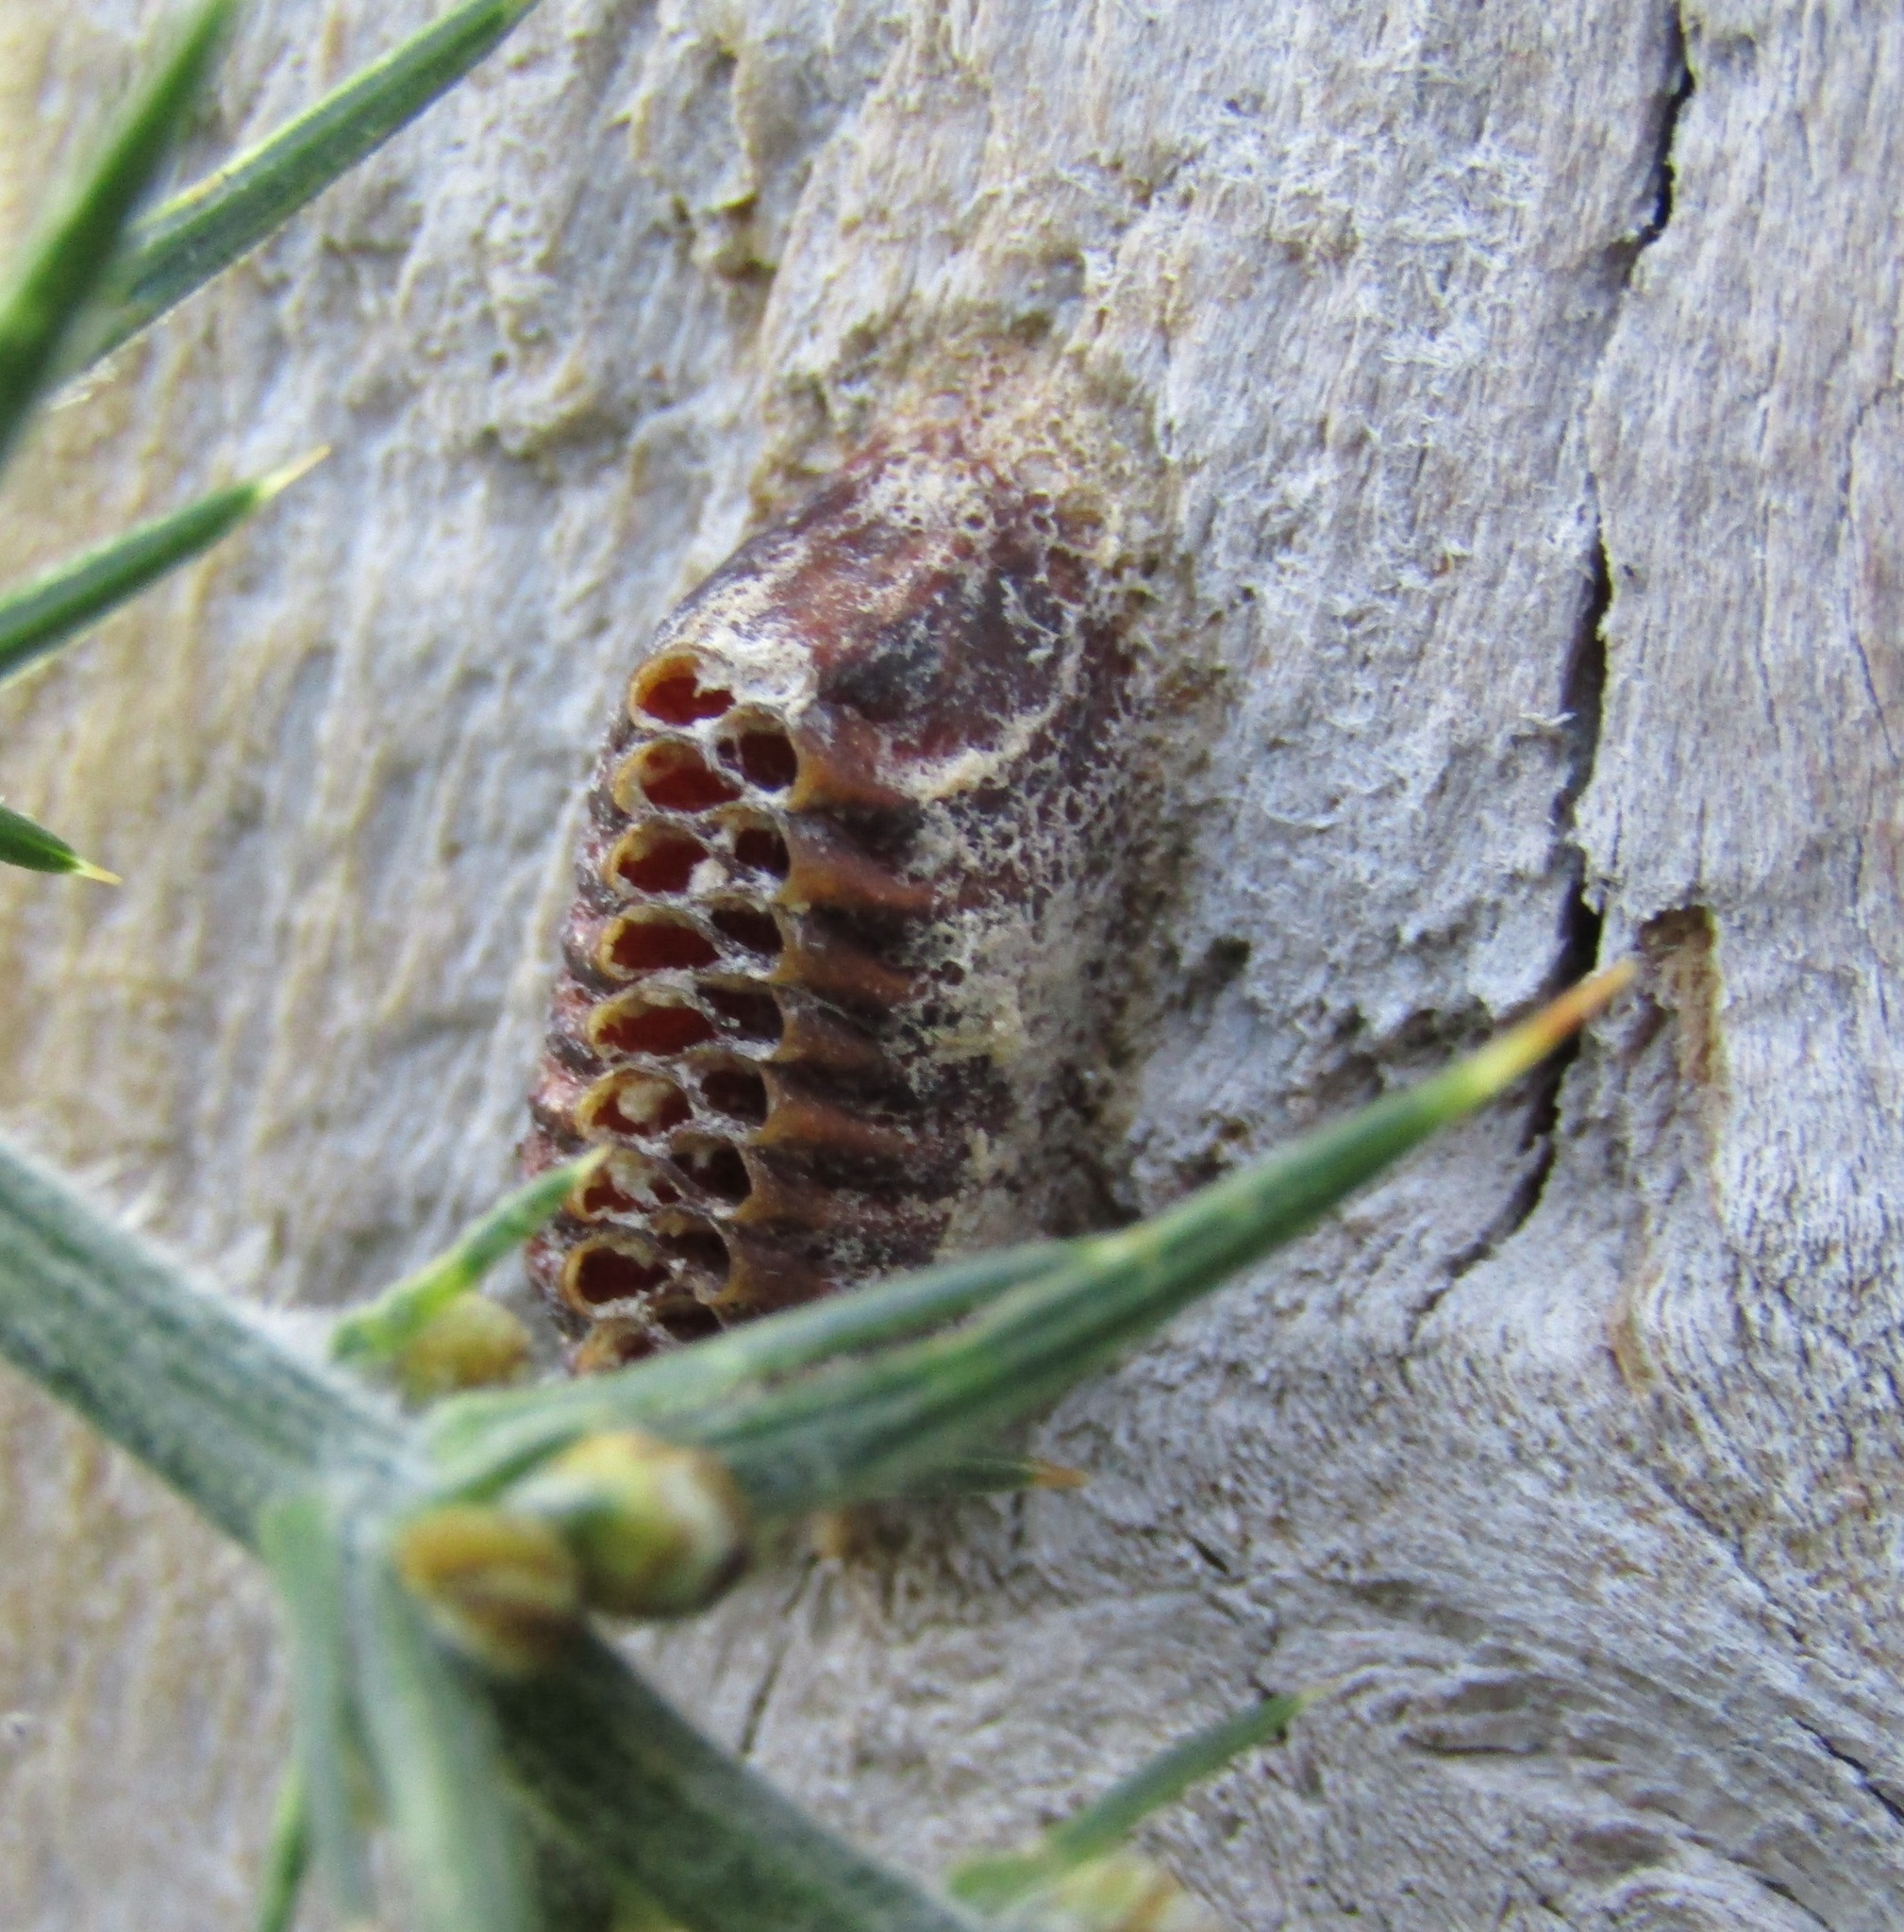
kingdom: Animalia
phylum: Arthropoda
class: Insecta
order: Mantodea
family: Mantidae
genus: Orthodera
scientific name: Orthodera novaezealandiae
